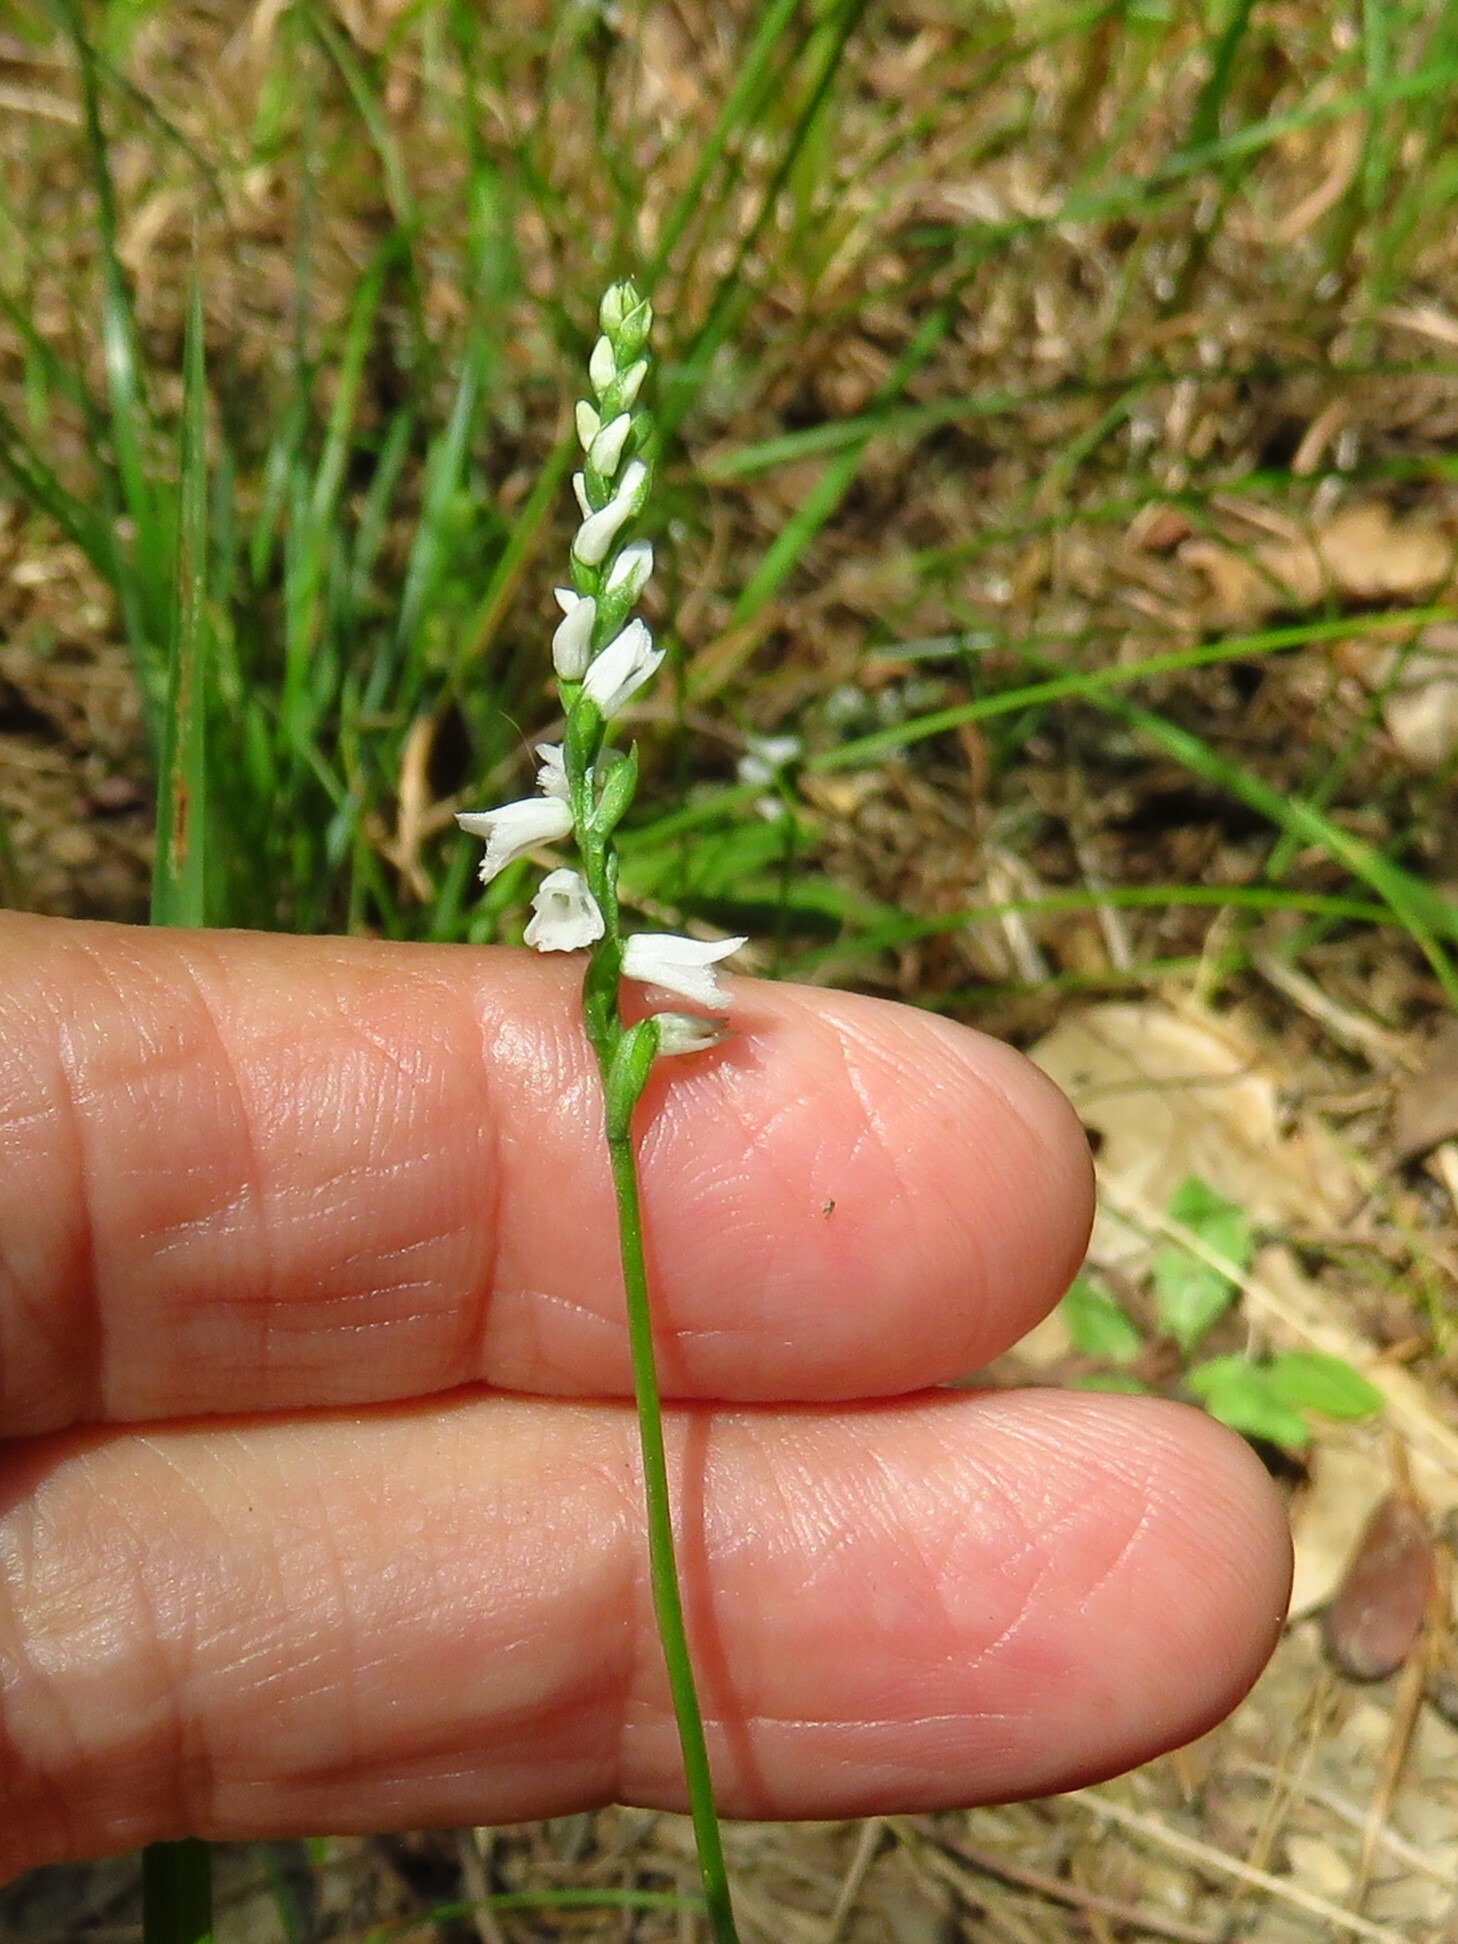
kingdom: Plantae
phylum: Tracheophyta
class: Liliopsida
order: Asparagales
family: Orchidaceae
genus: Spiranthes
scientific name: Spiranthes tuberosa
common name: Little ladies'-tresses
